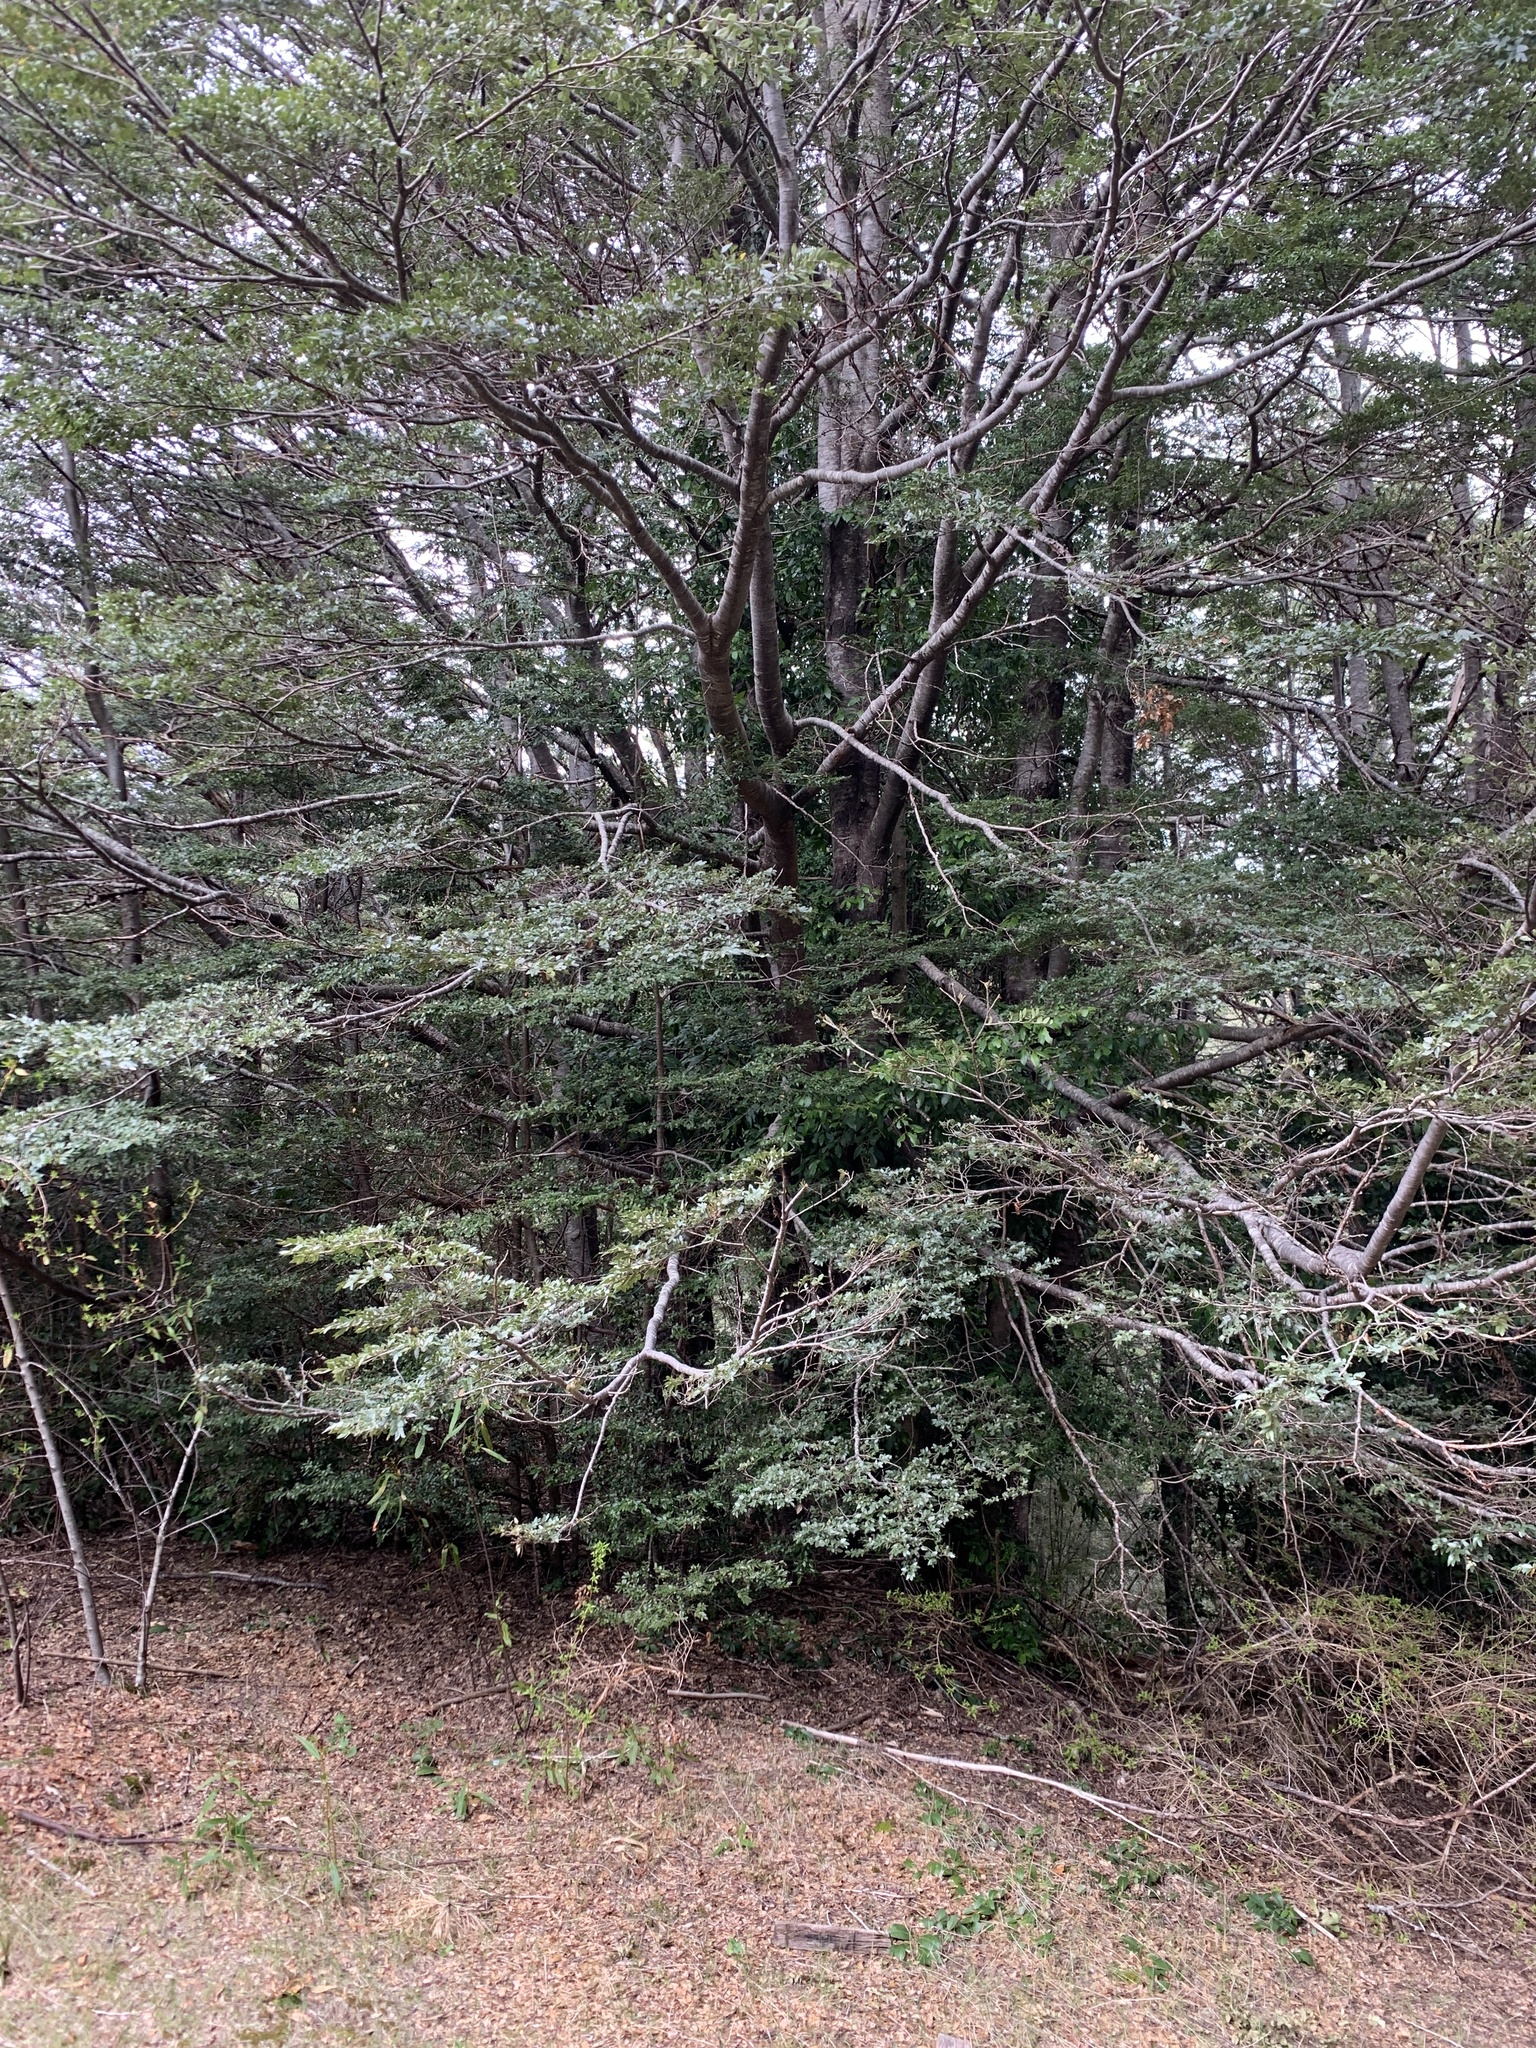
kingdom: Plantae
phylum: Tracheophyta
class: Magnoliopsida
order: Fagales
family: Nothofagaceae
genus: Nothofagus
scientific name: Nothofagus dombeyi
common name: Coigue
